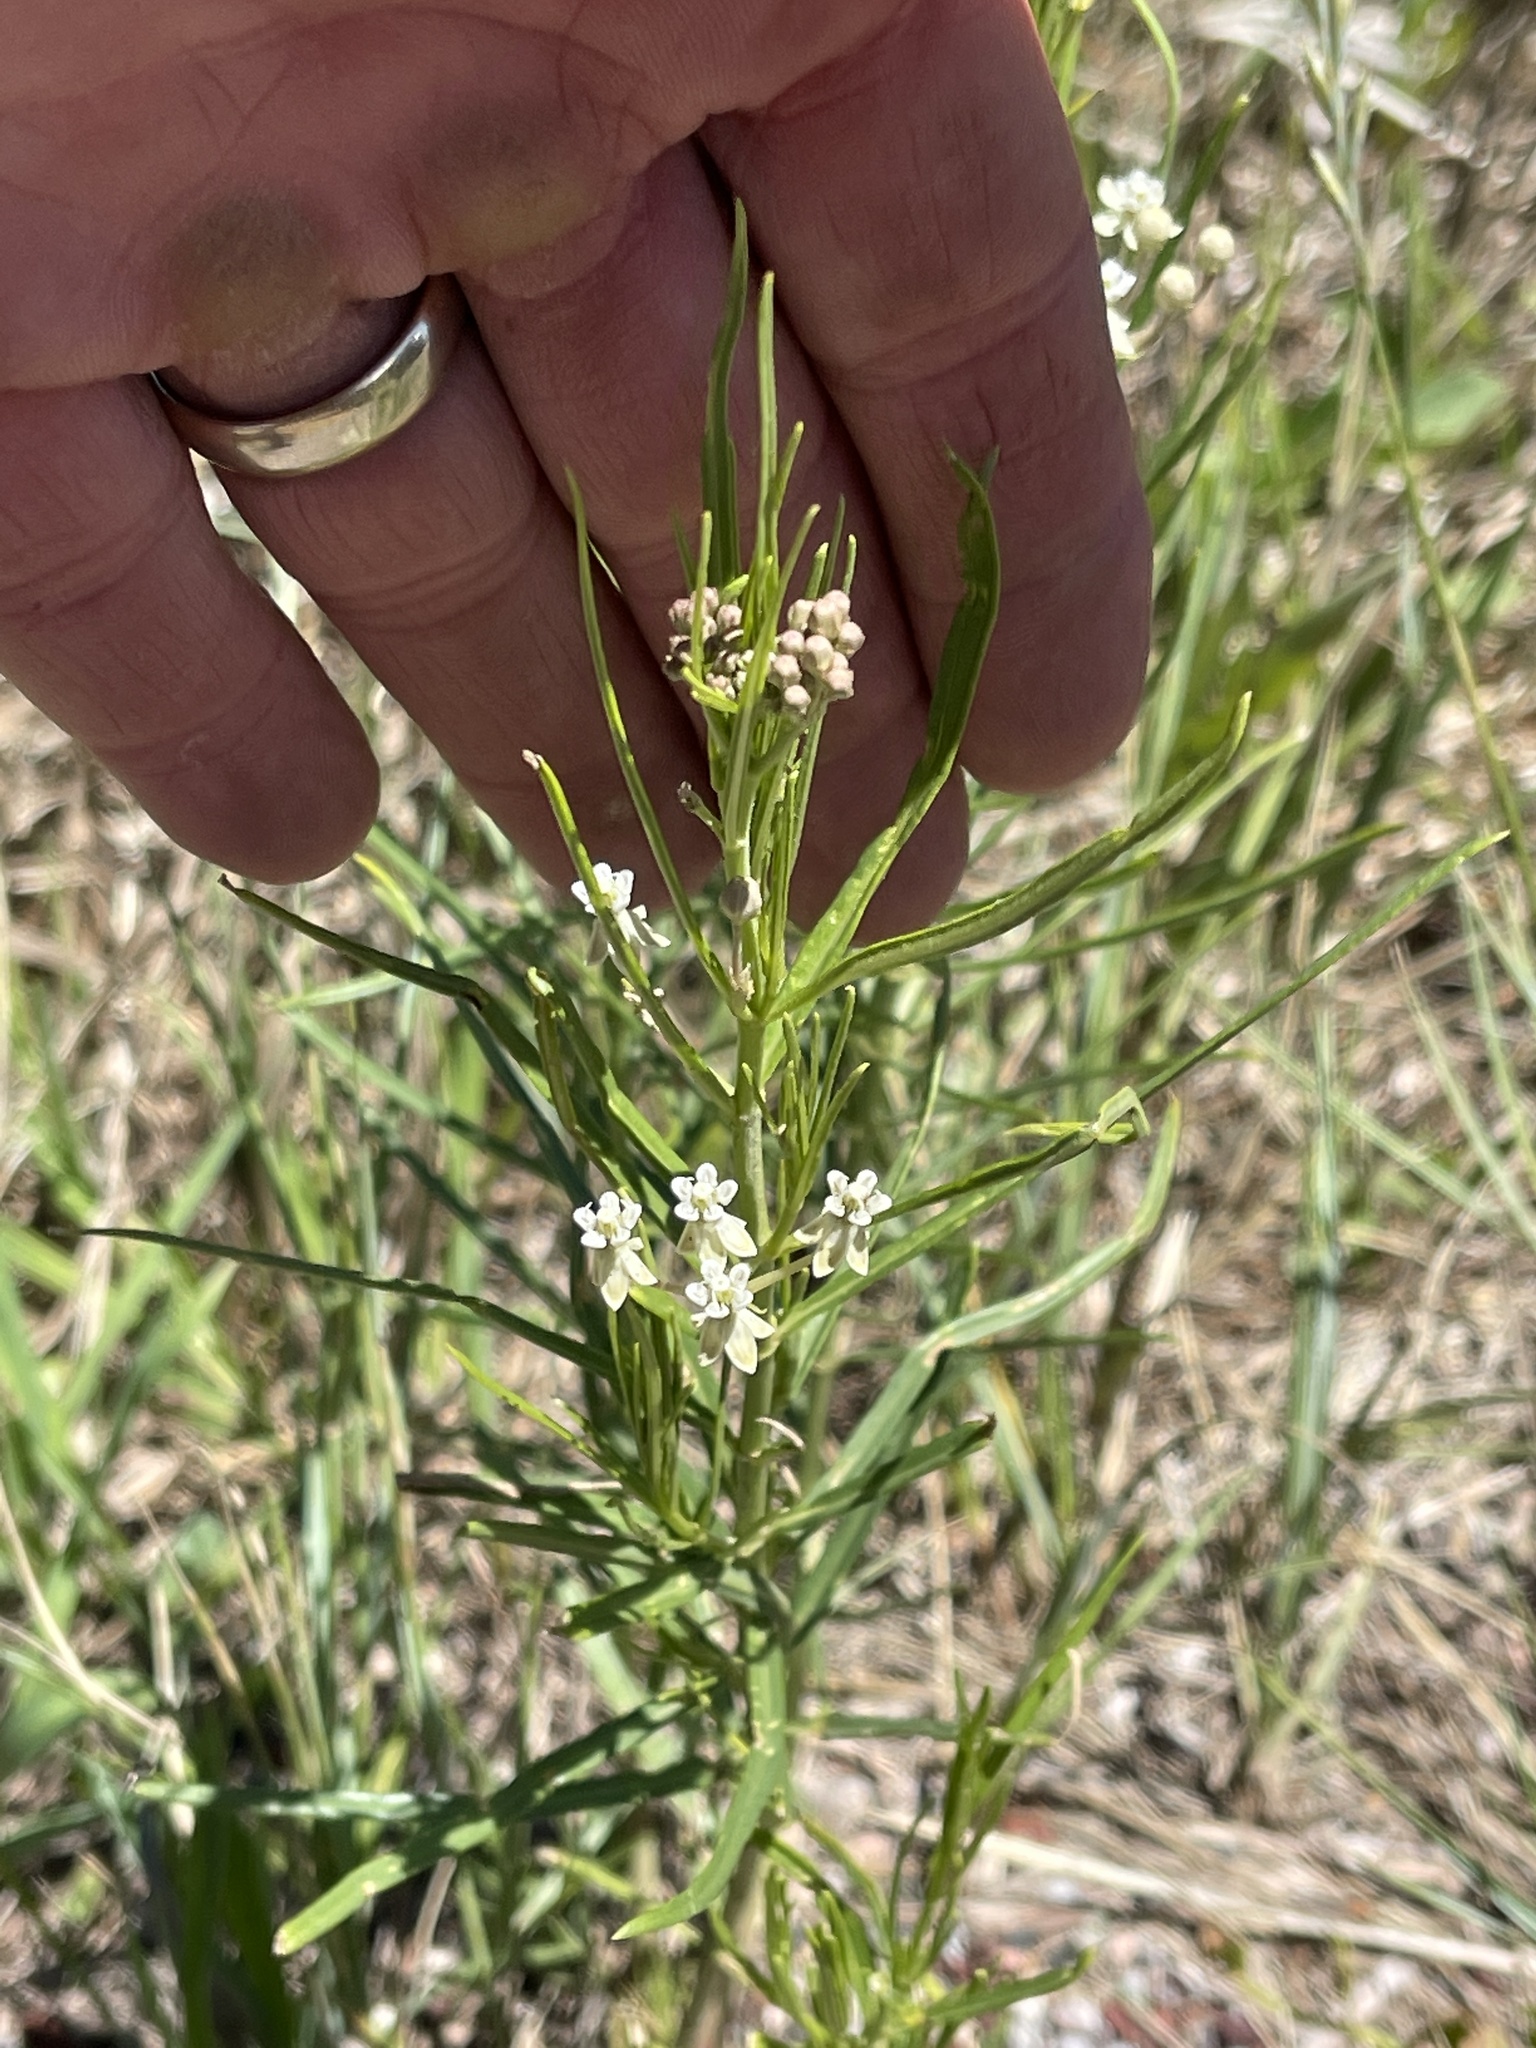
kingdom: Plantae
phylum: Tracheophyta
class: Magnoliopsida
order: Gentianales
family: Apocynaceae
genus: Asclepias
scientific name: Asclepias subverticillata
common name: Horsetail milkweed
